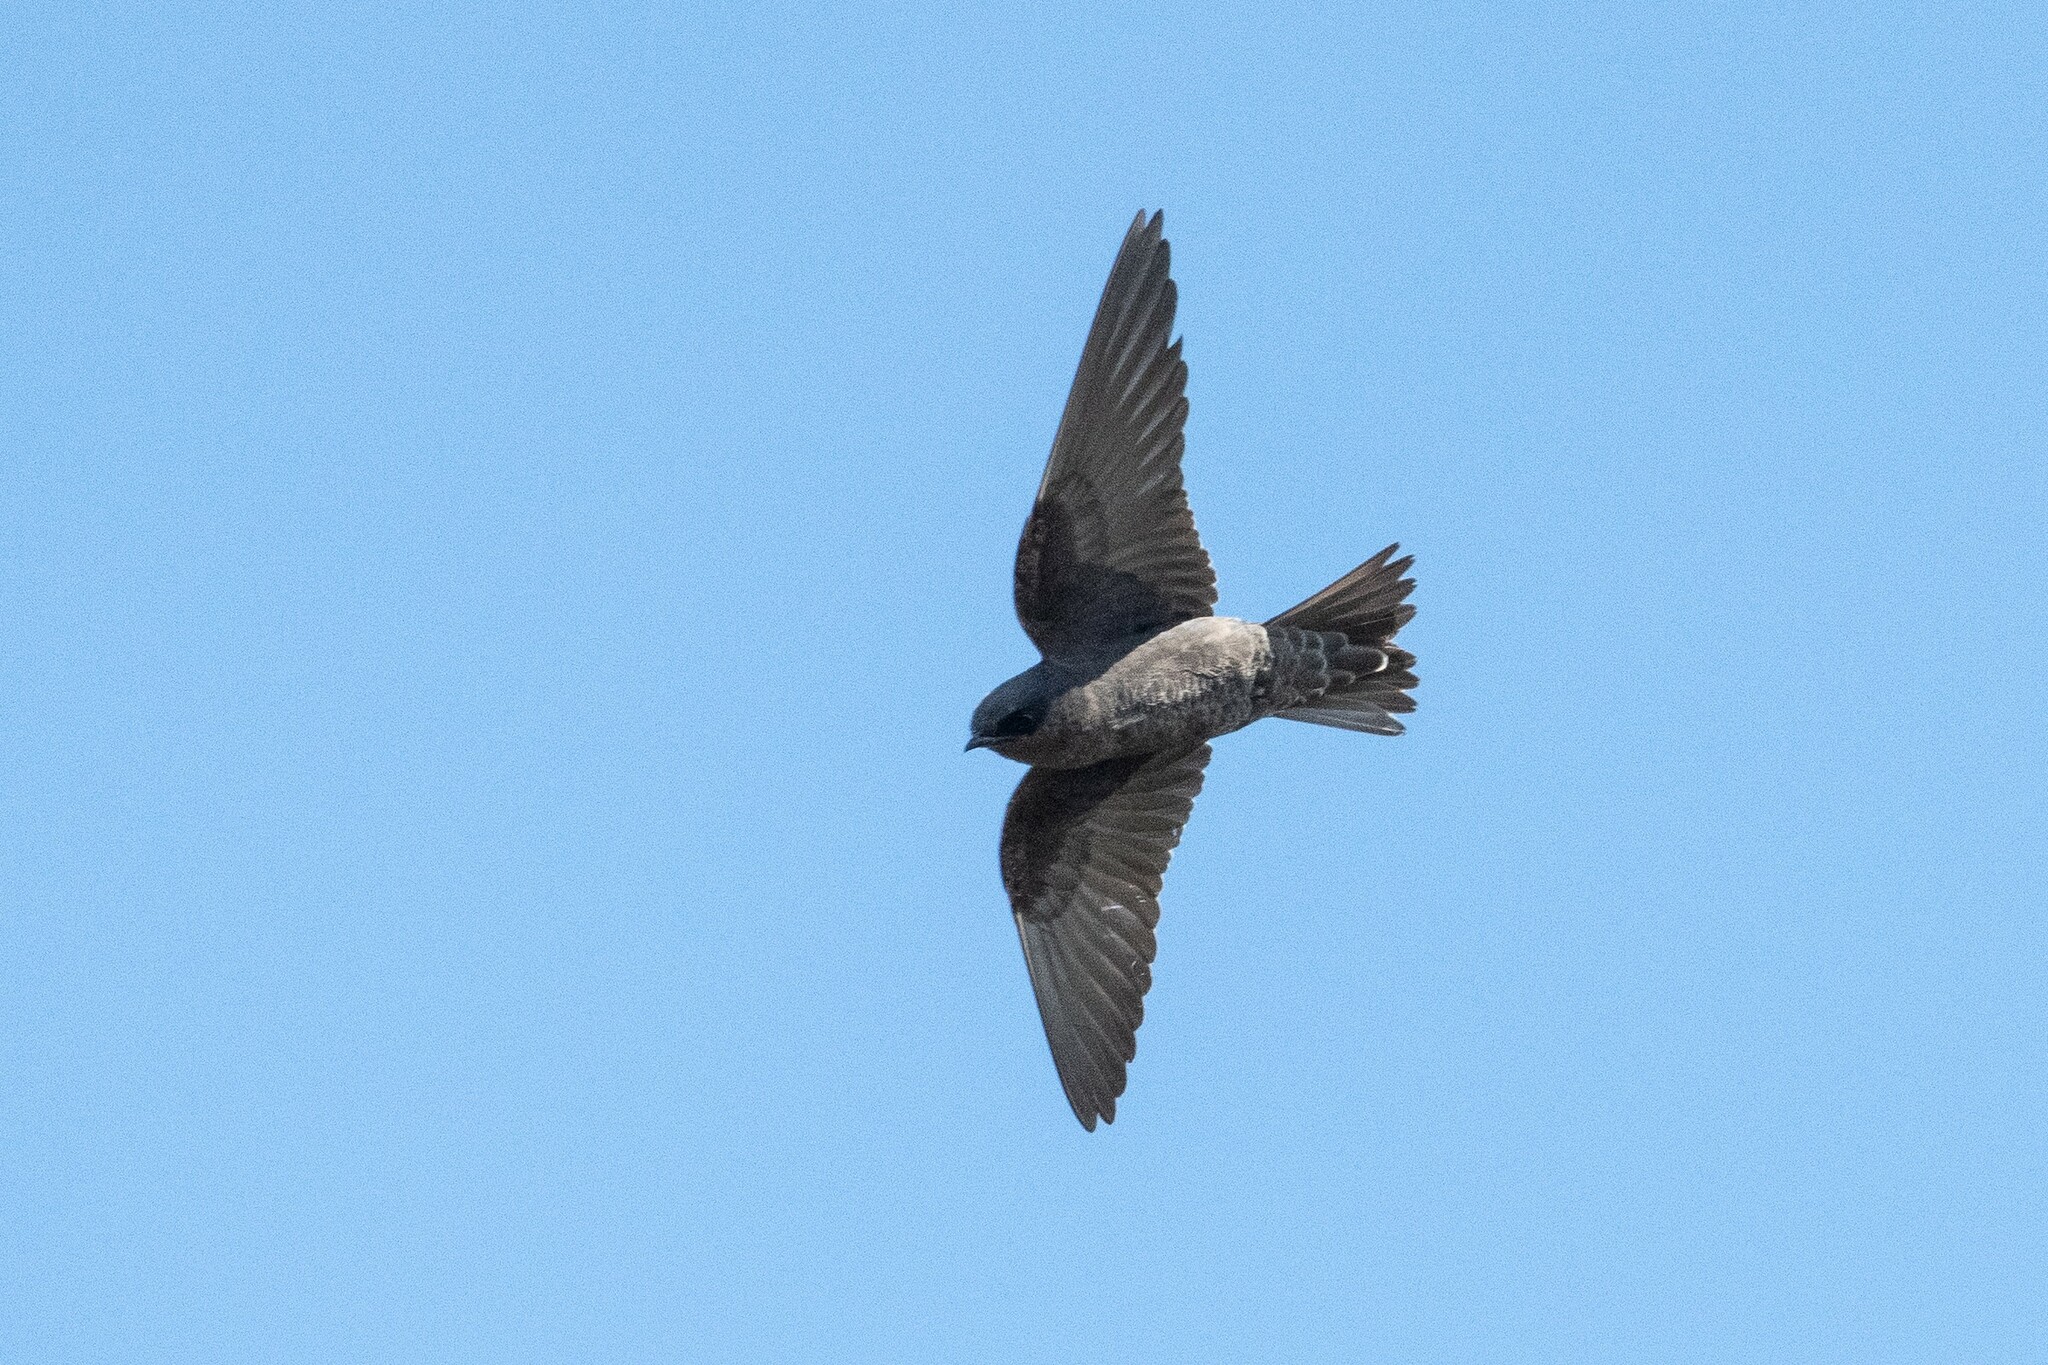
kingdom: Animalia
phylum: Chordata
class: Aves
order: Passeriformes
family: Hirundinidae
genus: Progne
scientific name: Progne modesta
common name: Galapagos martin
